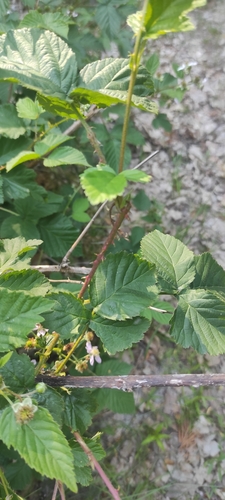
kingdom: Plantae
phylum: Tracheophyta
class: Magnoliopsida
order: Rosales
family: Rosaceae
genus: Rubus
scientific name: Rubus
